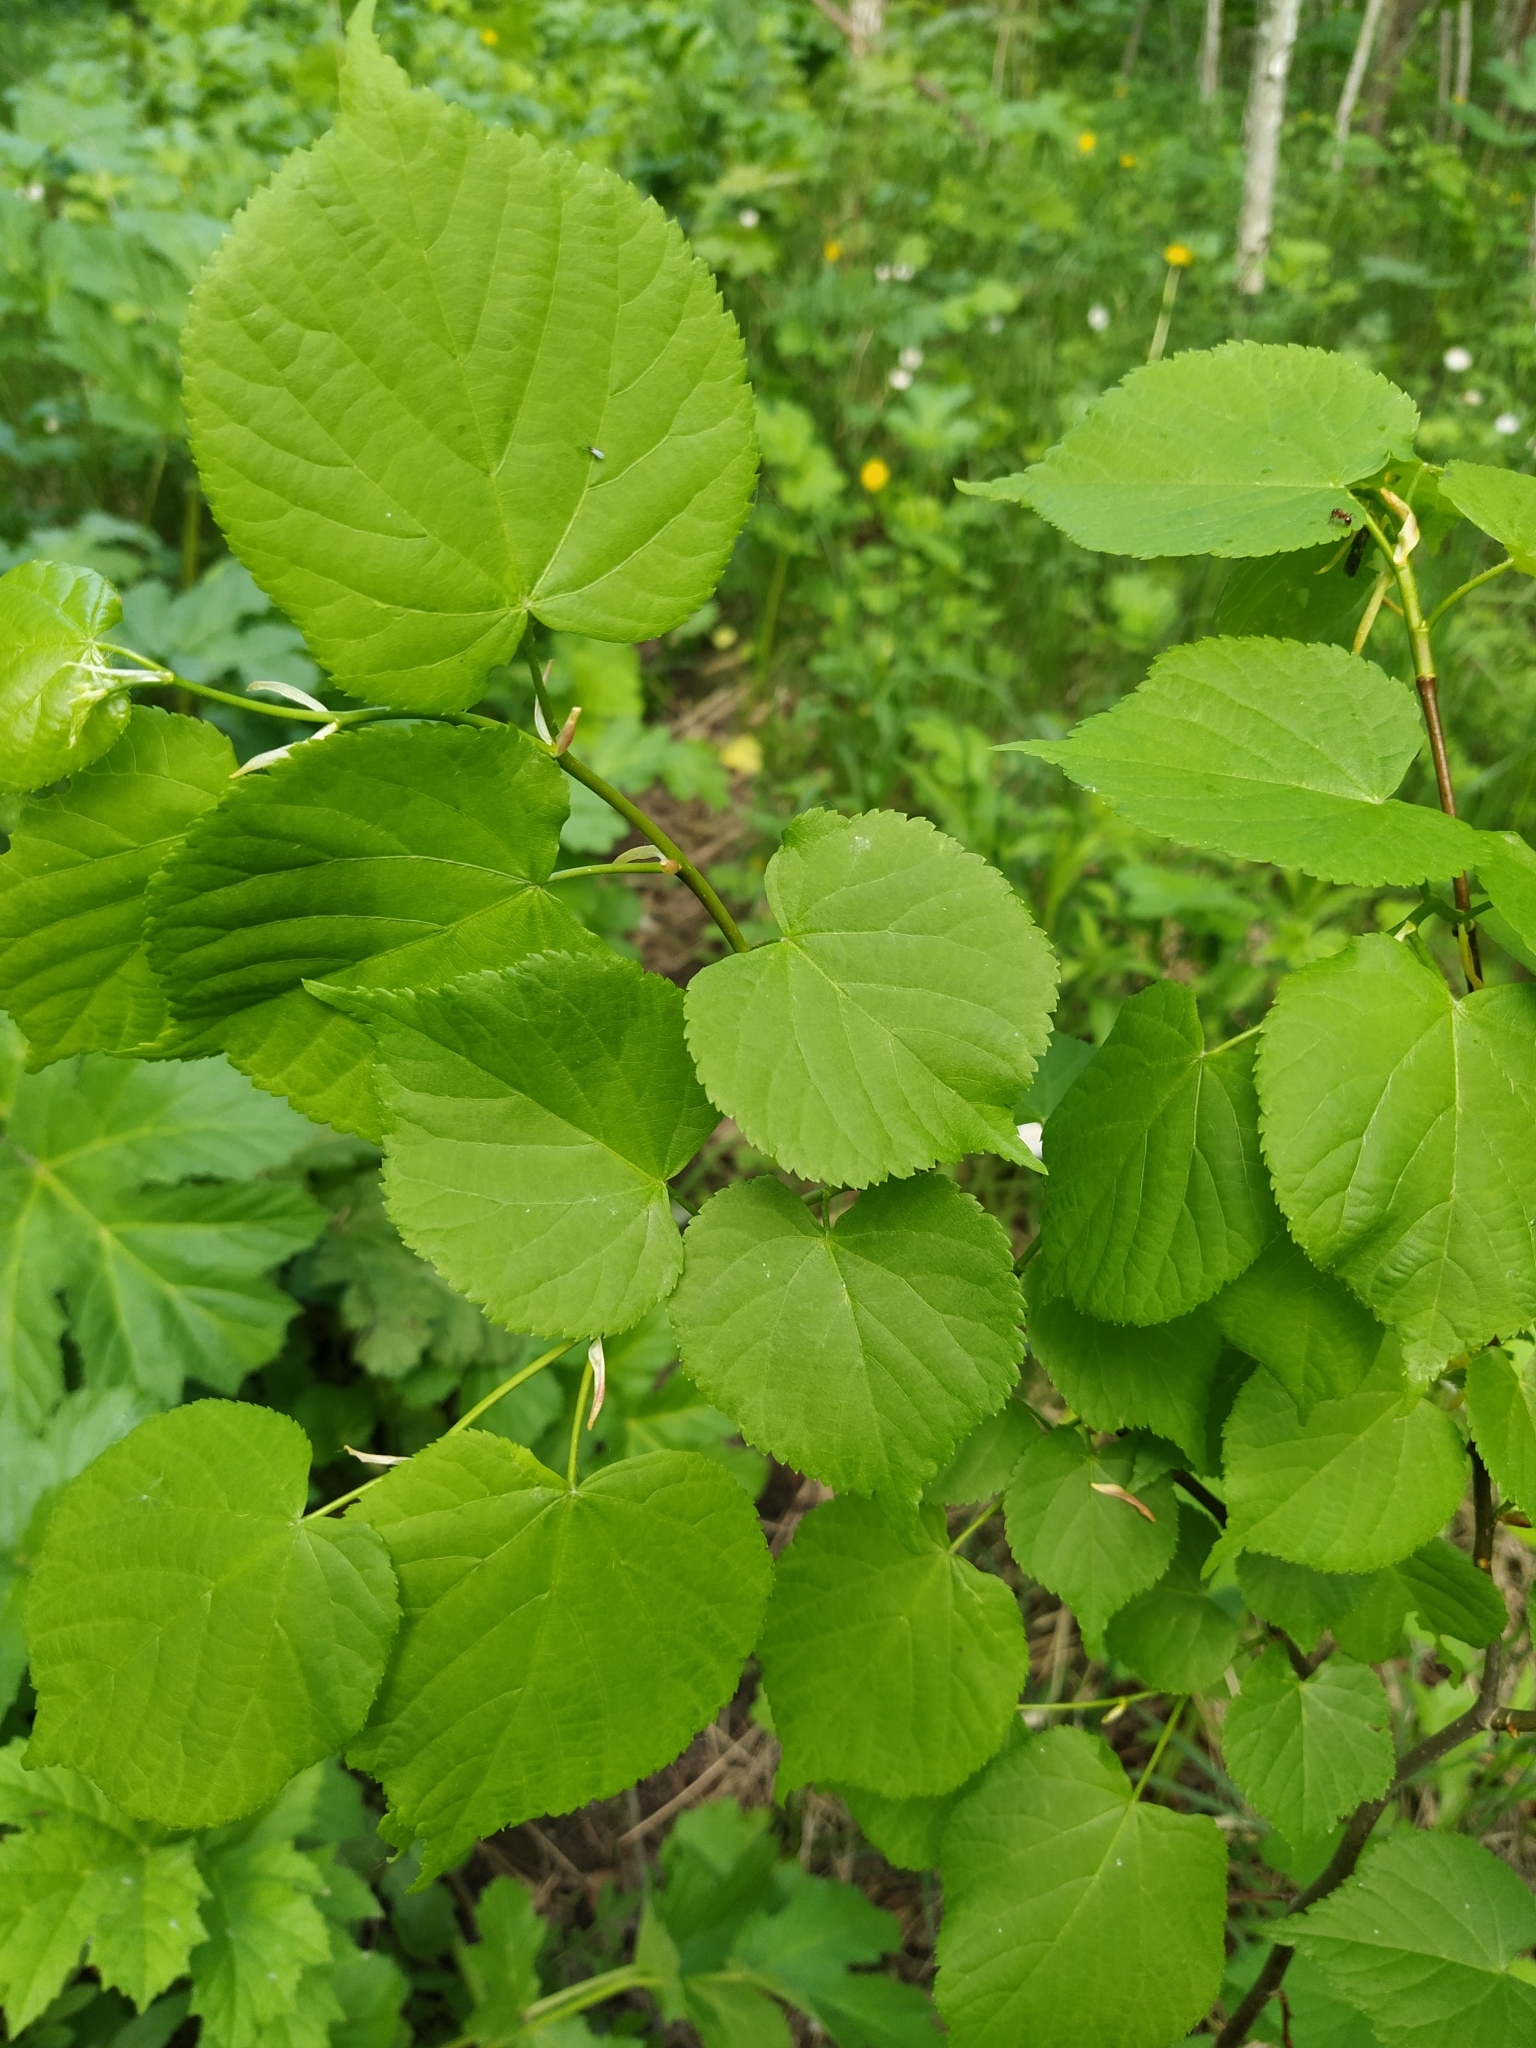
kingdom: Plantae
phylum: Tracheophyta
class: Magnoliopsida
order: Malvales
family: Malvaceae
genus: Tilia
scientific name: Tilia cordata
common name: Small-leaved lime
